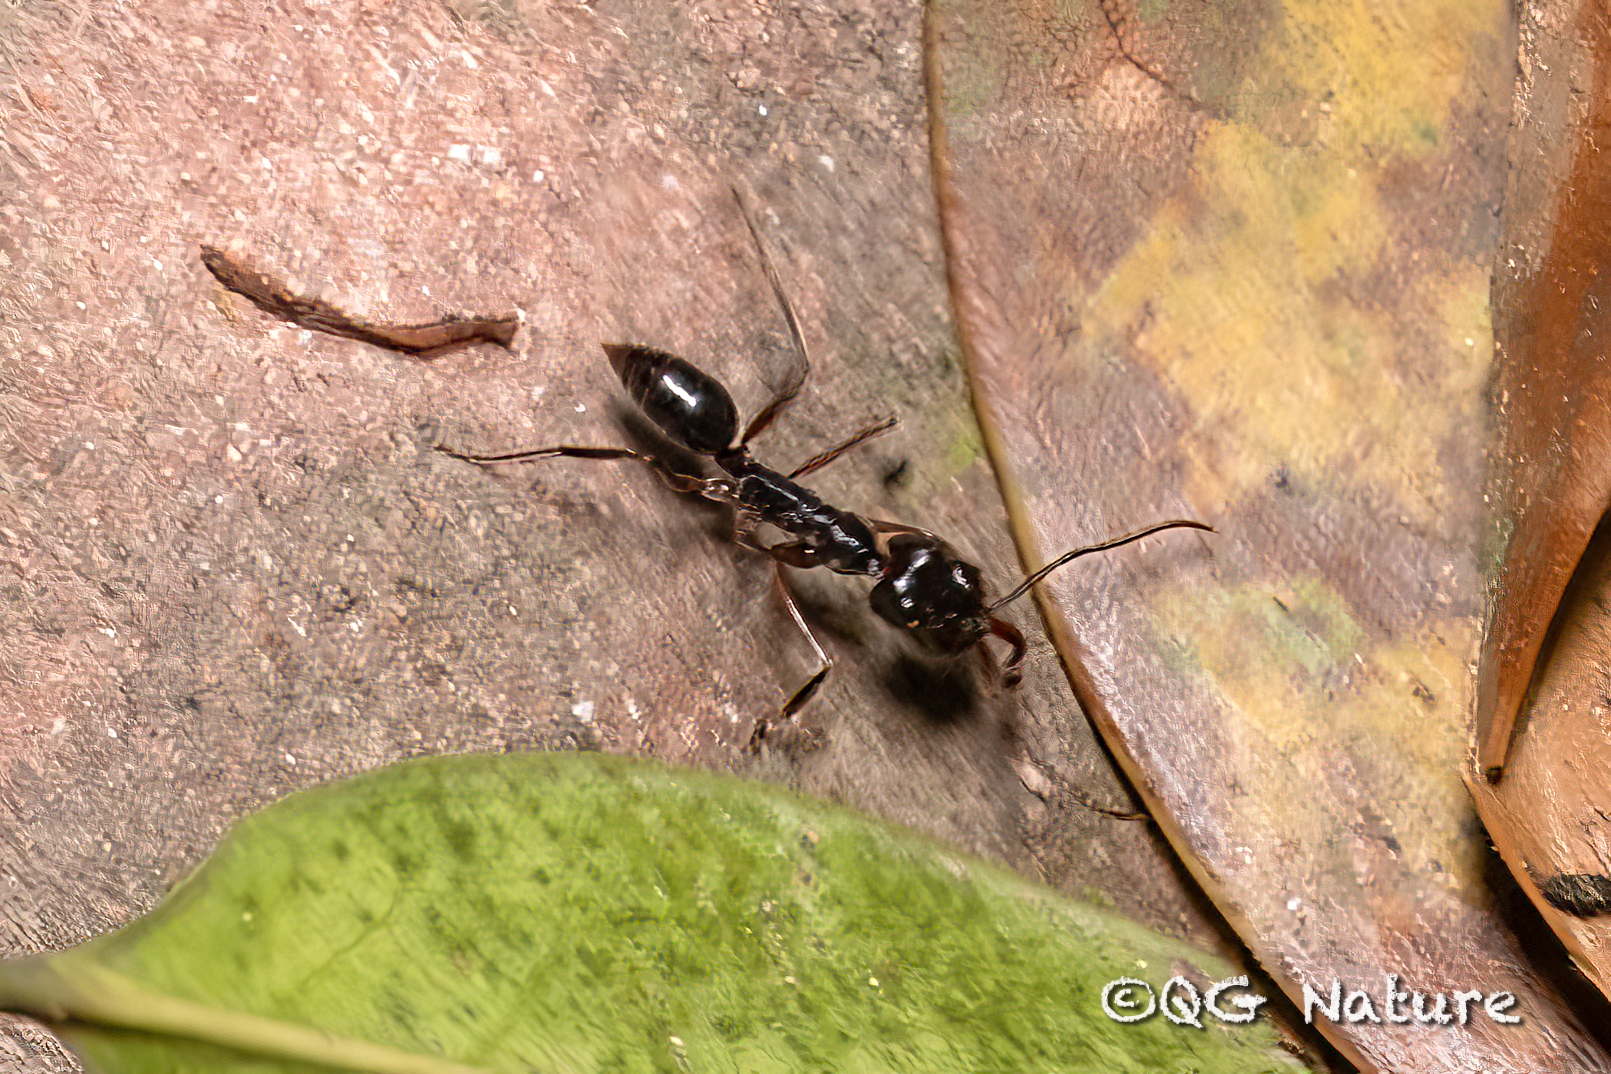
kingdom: Animalia
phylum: Arthropoda
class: Insecta
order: Hymenoptera
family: Formicidae
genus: Odontomachus
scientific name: Odontomachus monticola
